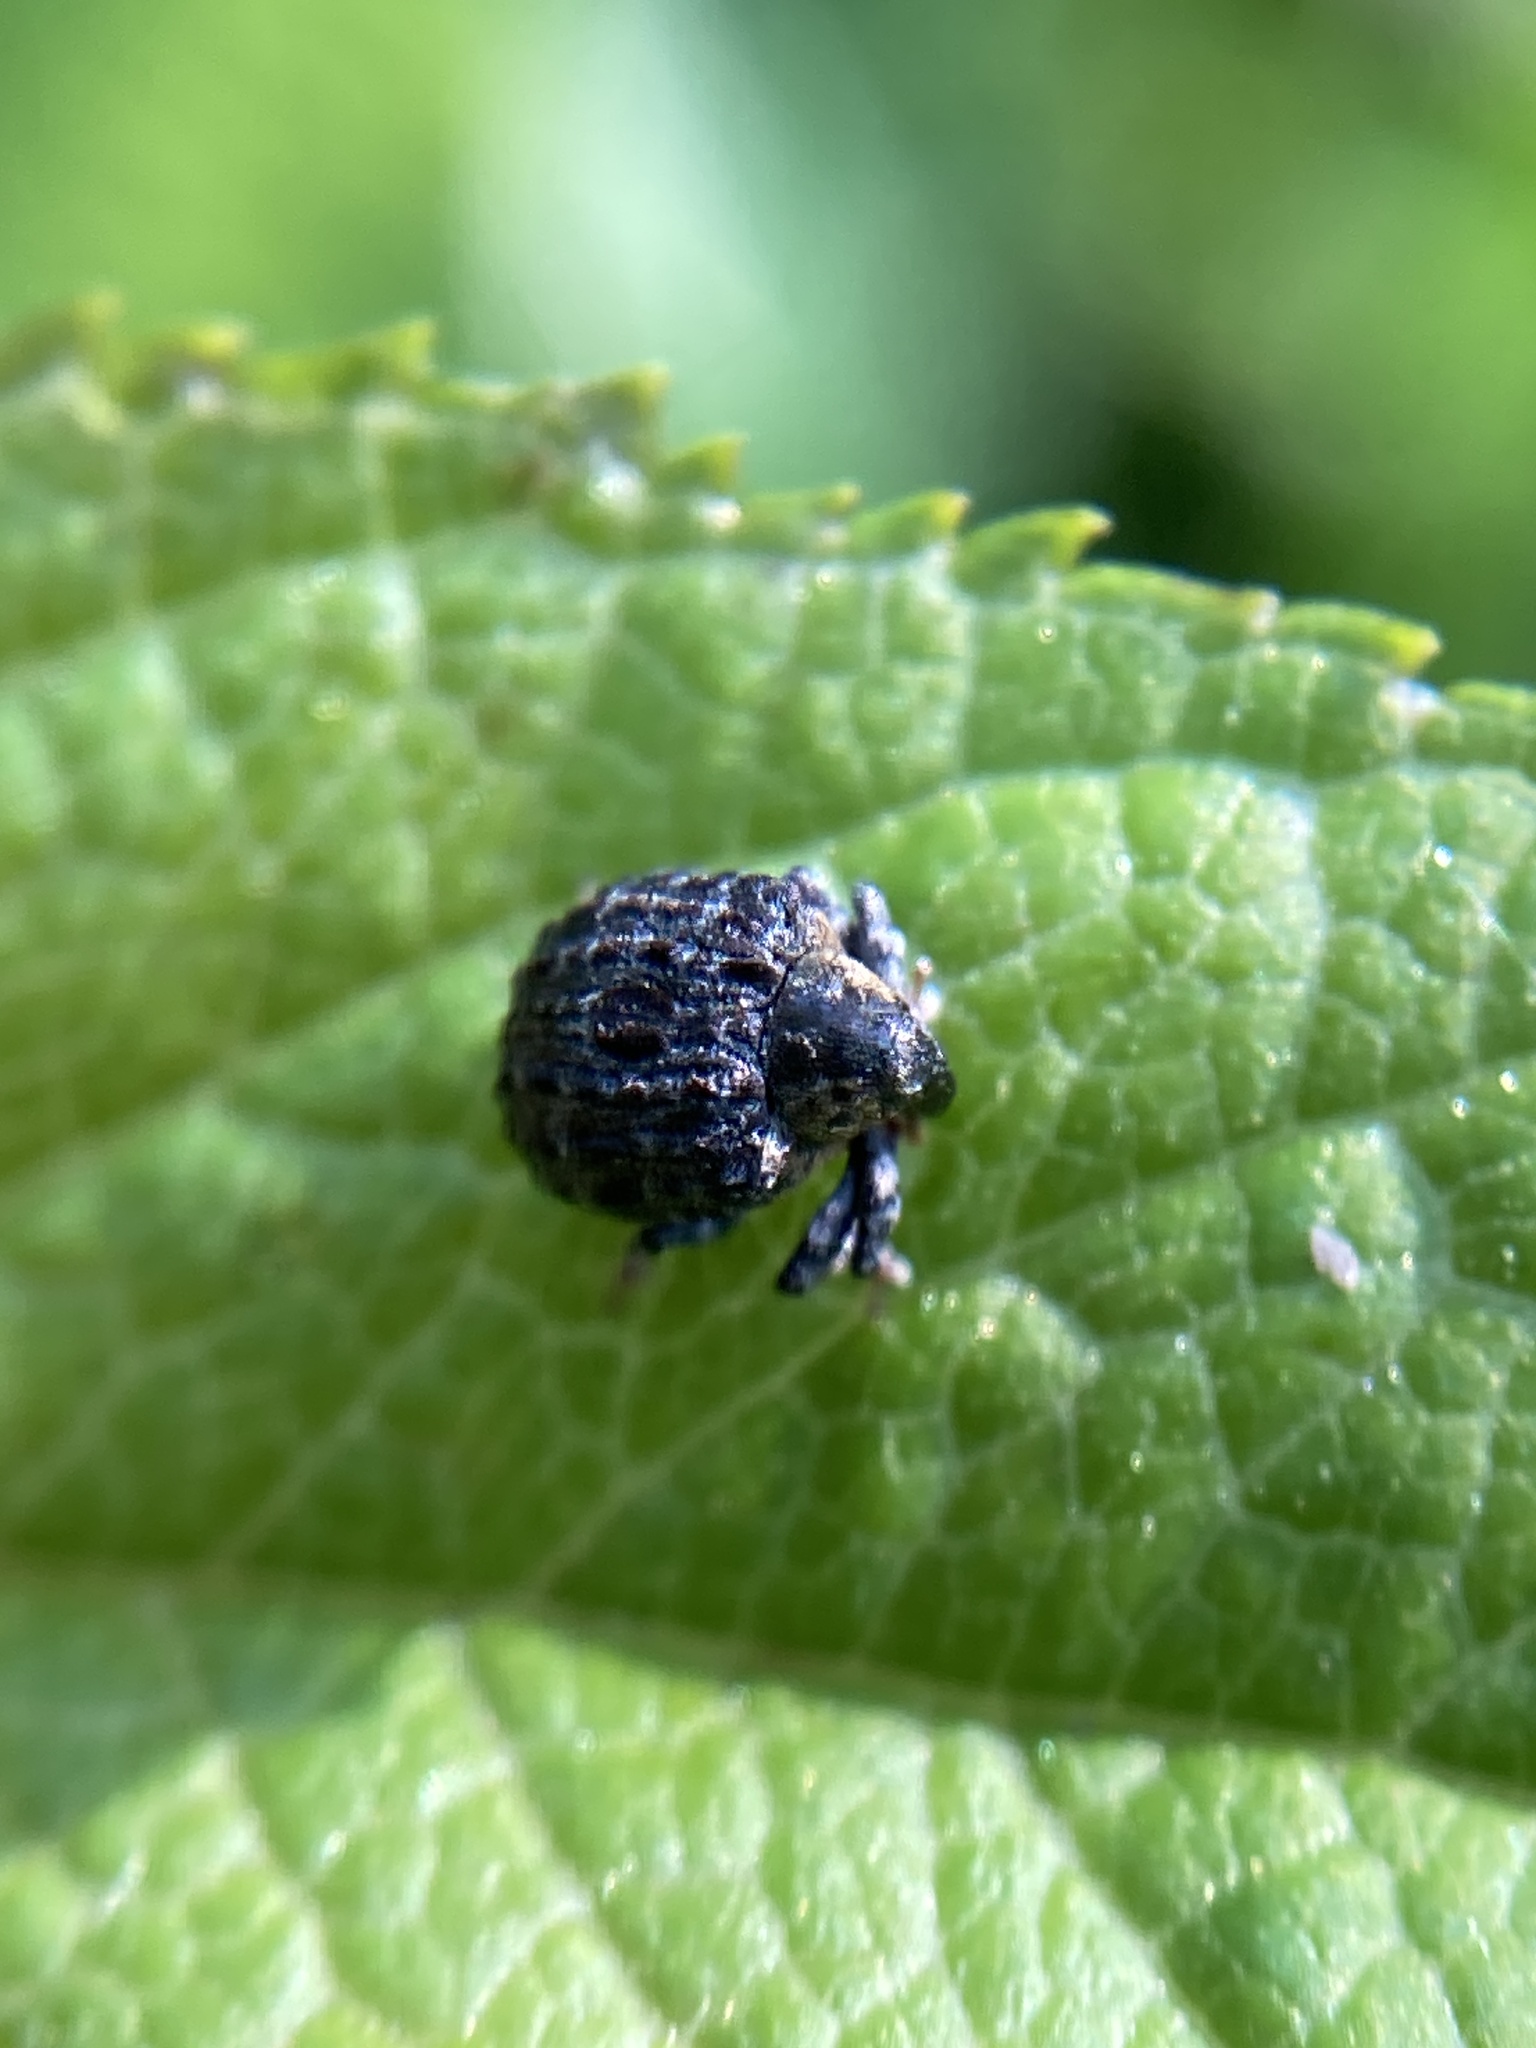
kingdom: Animalia
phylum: Arthropoda
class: Insecta
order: Coleoptera
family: Curculionidae
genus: Cionus
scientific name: Cionus tuberculosus
